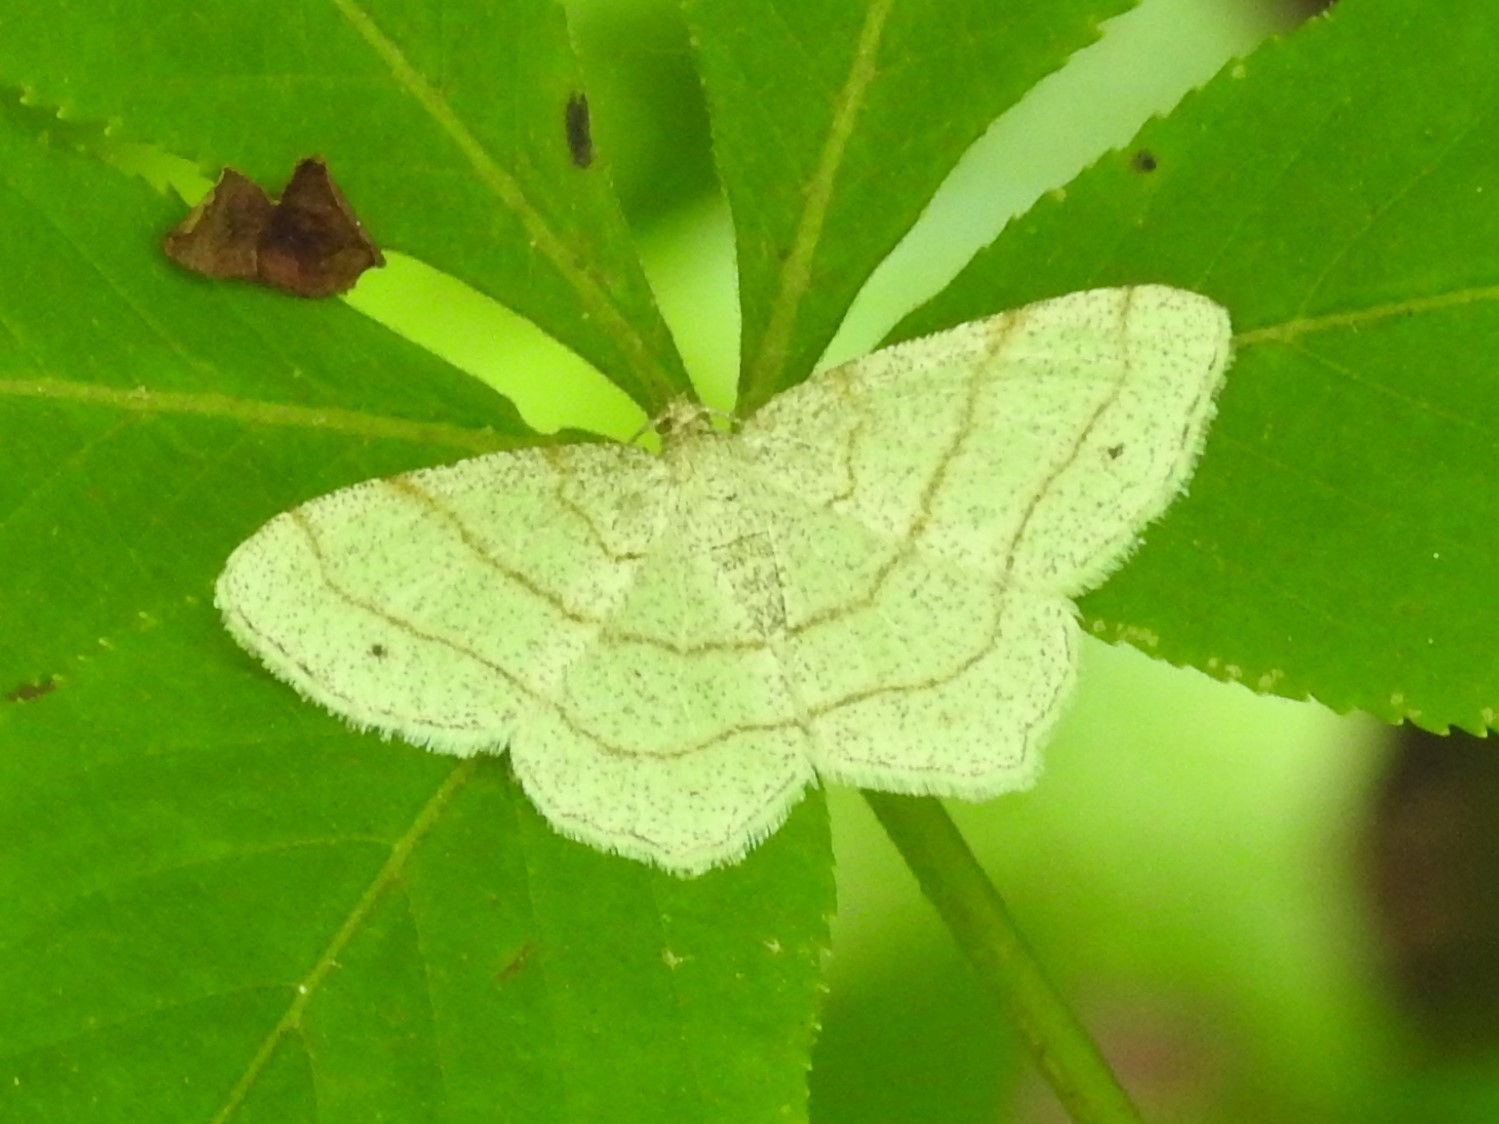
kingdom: Animalia
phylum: Arthropoda
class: Insecta
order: Lepidoptera
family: Geometridae
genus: Trigrammia
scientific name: Trigrammia quadrinotaria
